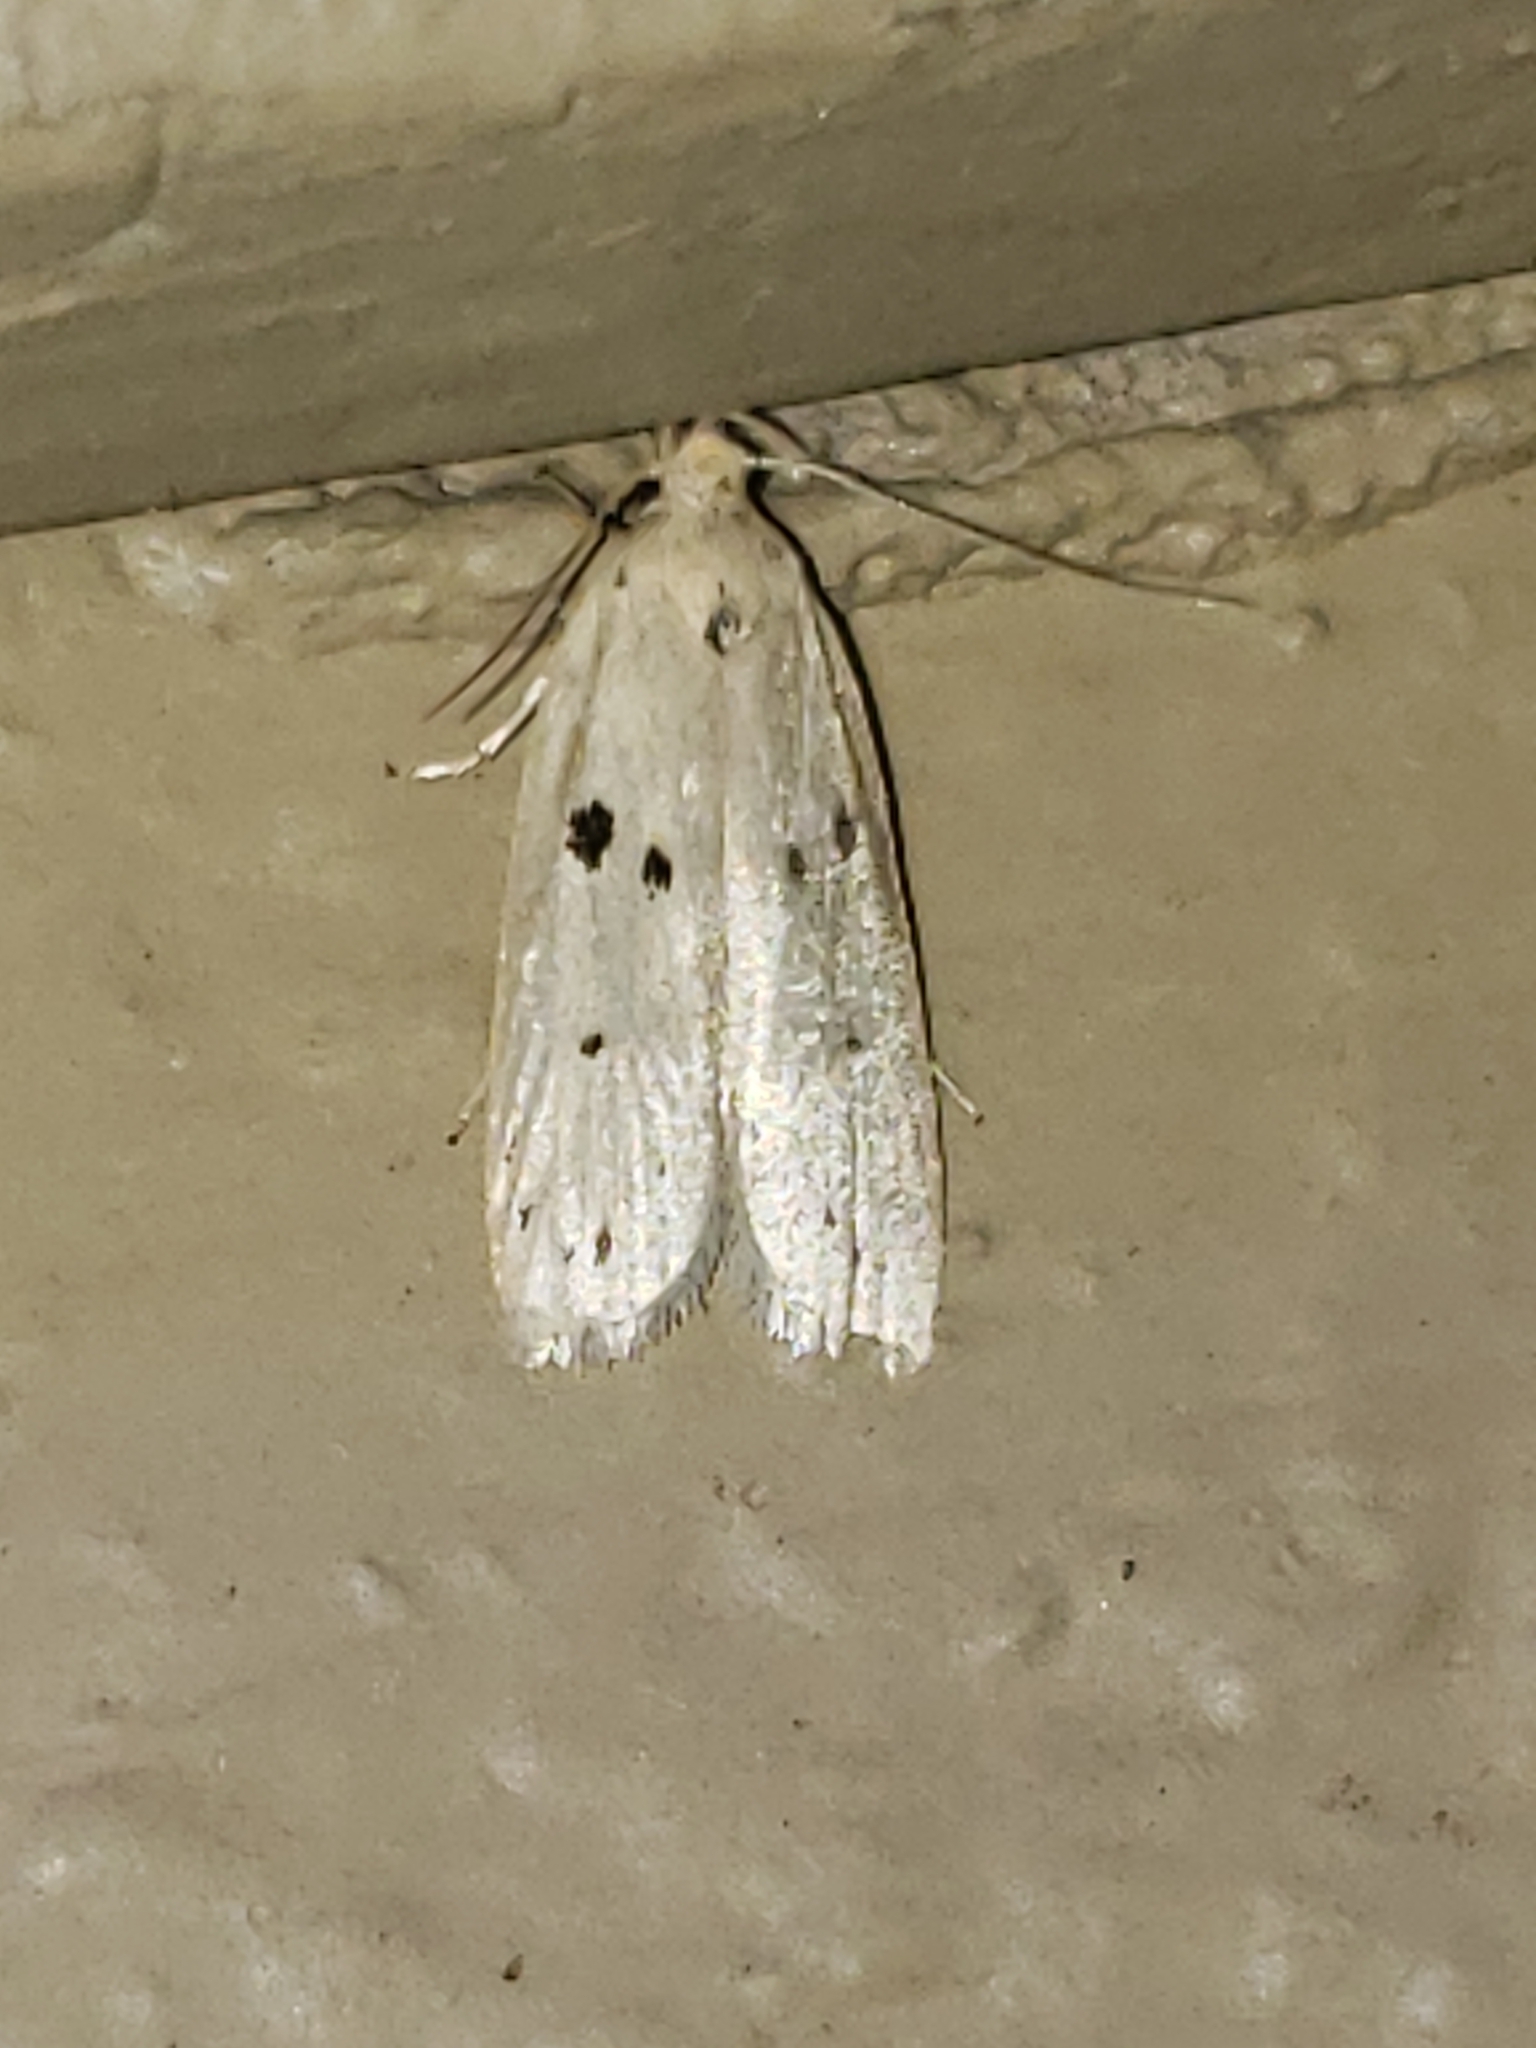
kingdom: Animalia
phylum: Arthropoda
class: Insecta
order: Lepidoptera
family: Peleopodidae
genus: Scythropiodes
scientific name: Scythropiodes issikii
